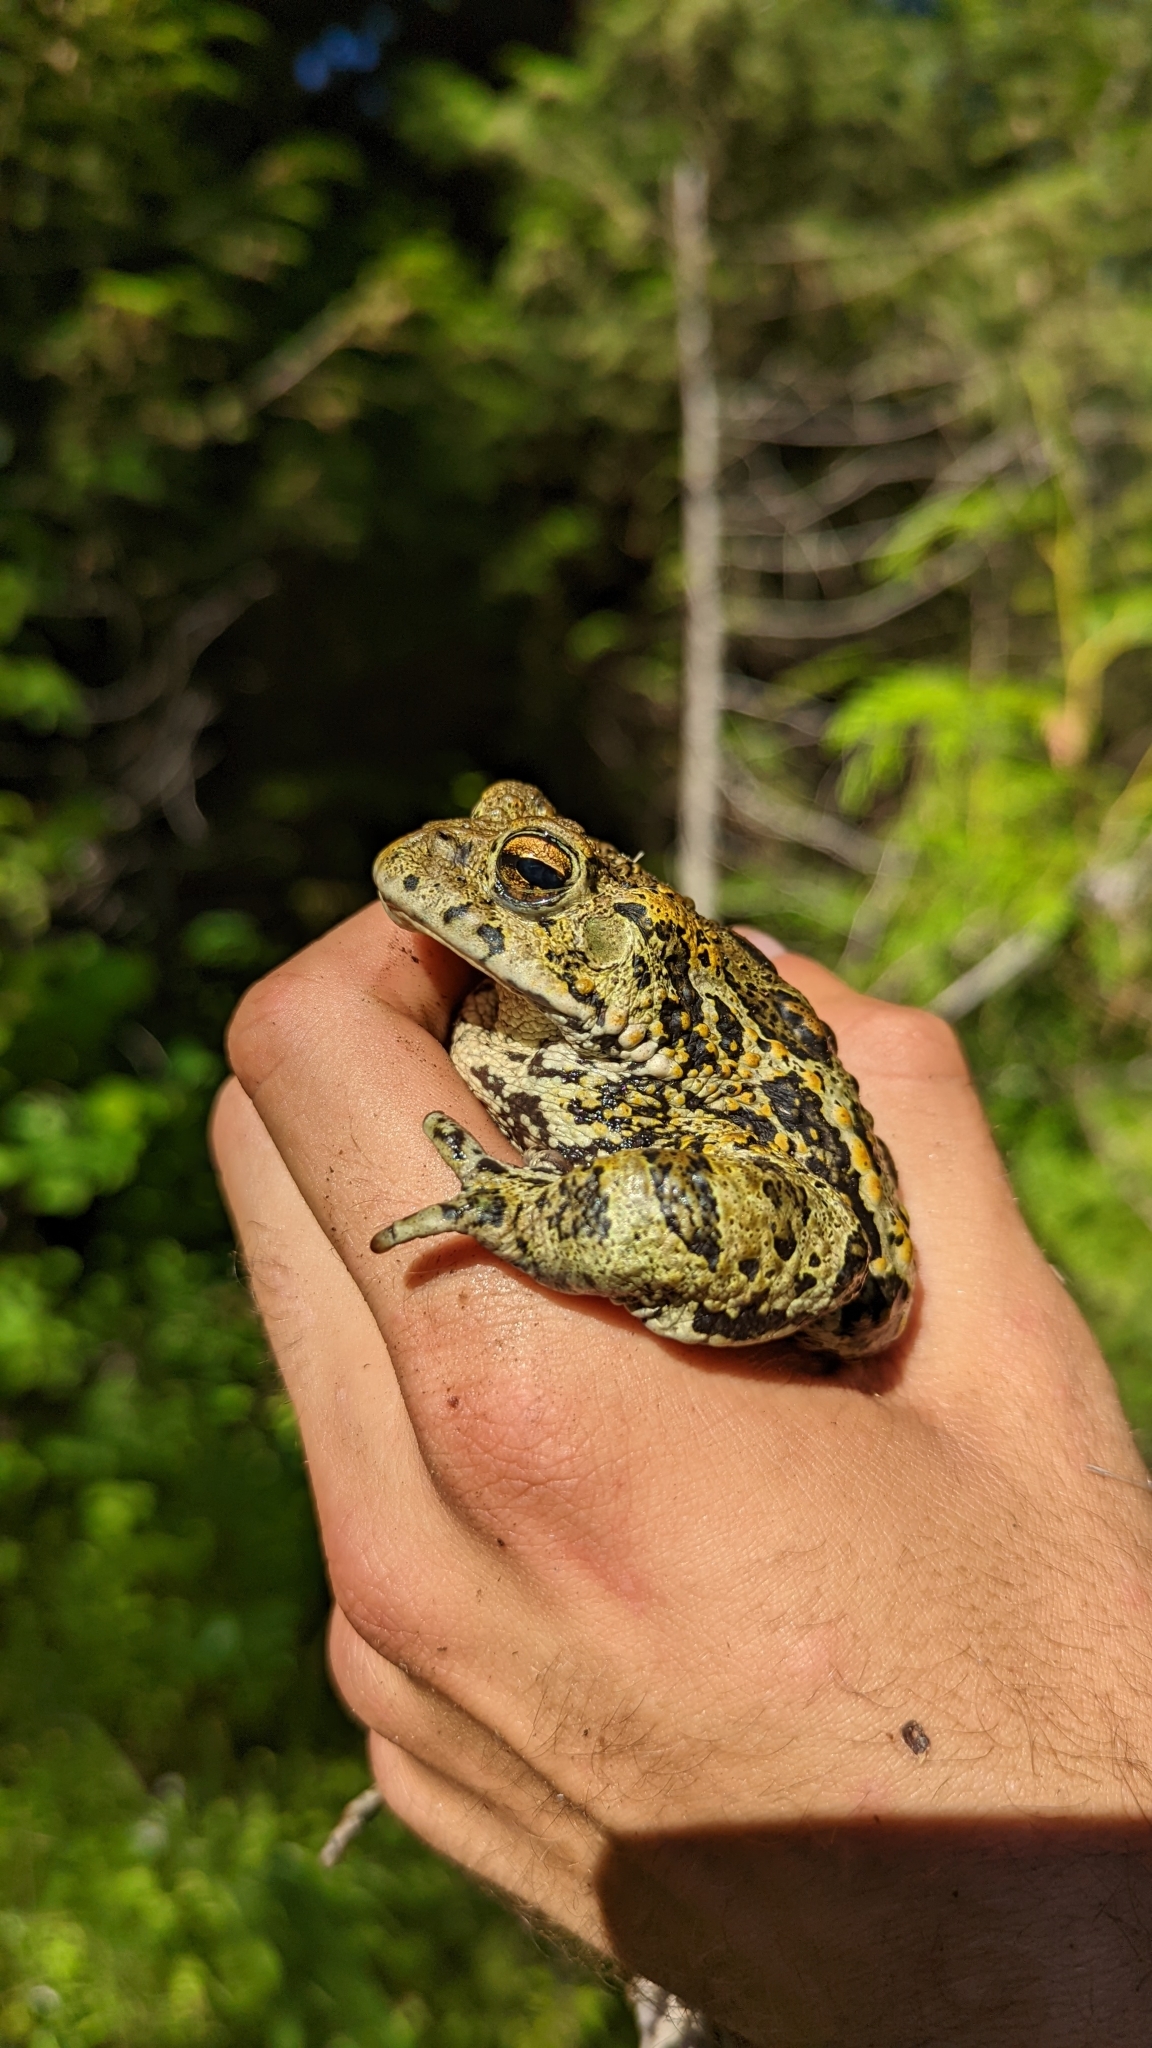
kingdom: Animalia
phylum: Chordata
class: Amphibia
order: Anura
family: Bufonidae
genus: Anaxyrus
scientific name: Anaxyrus boreas
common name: Western toad
